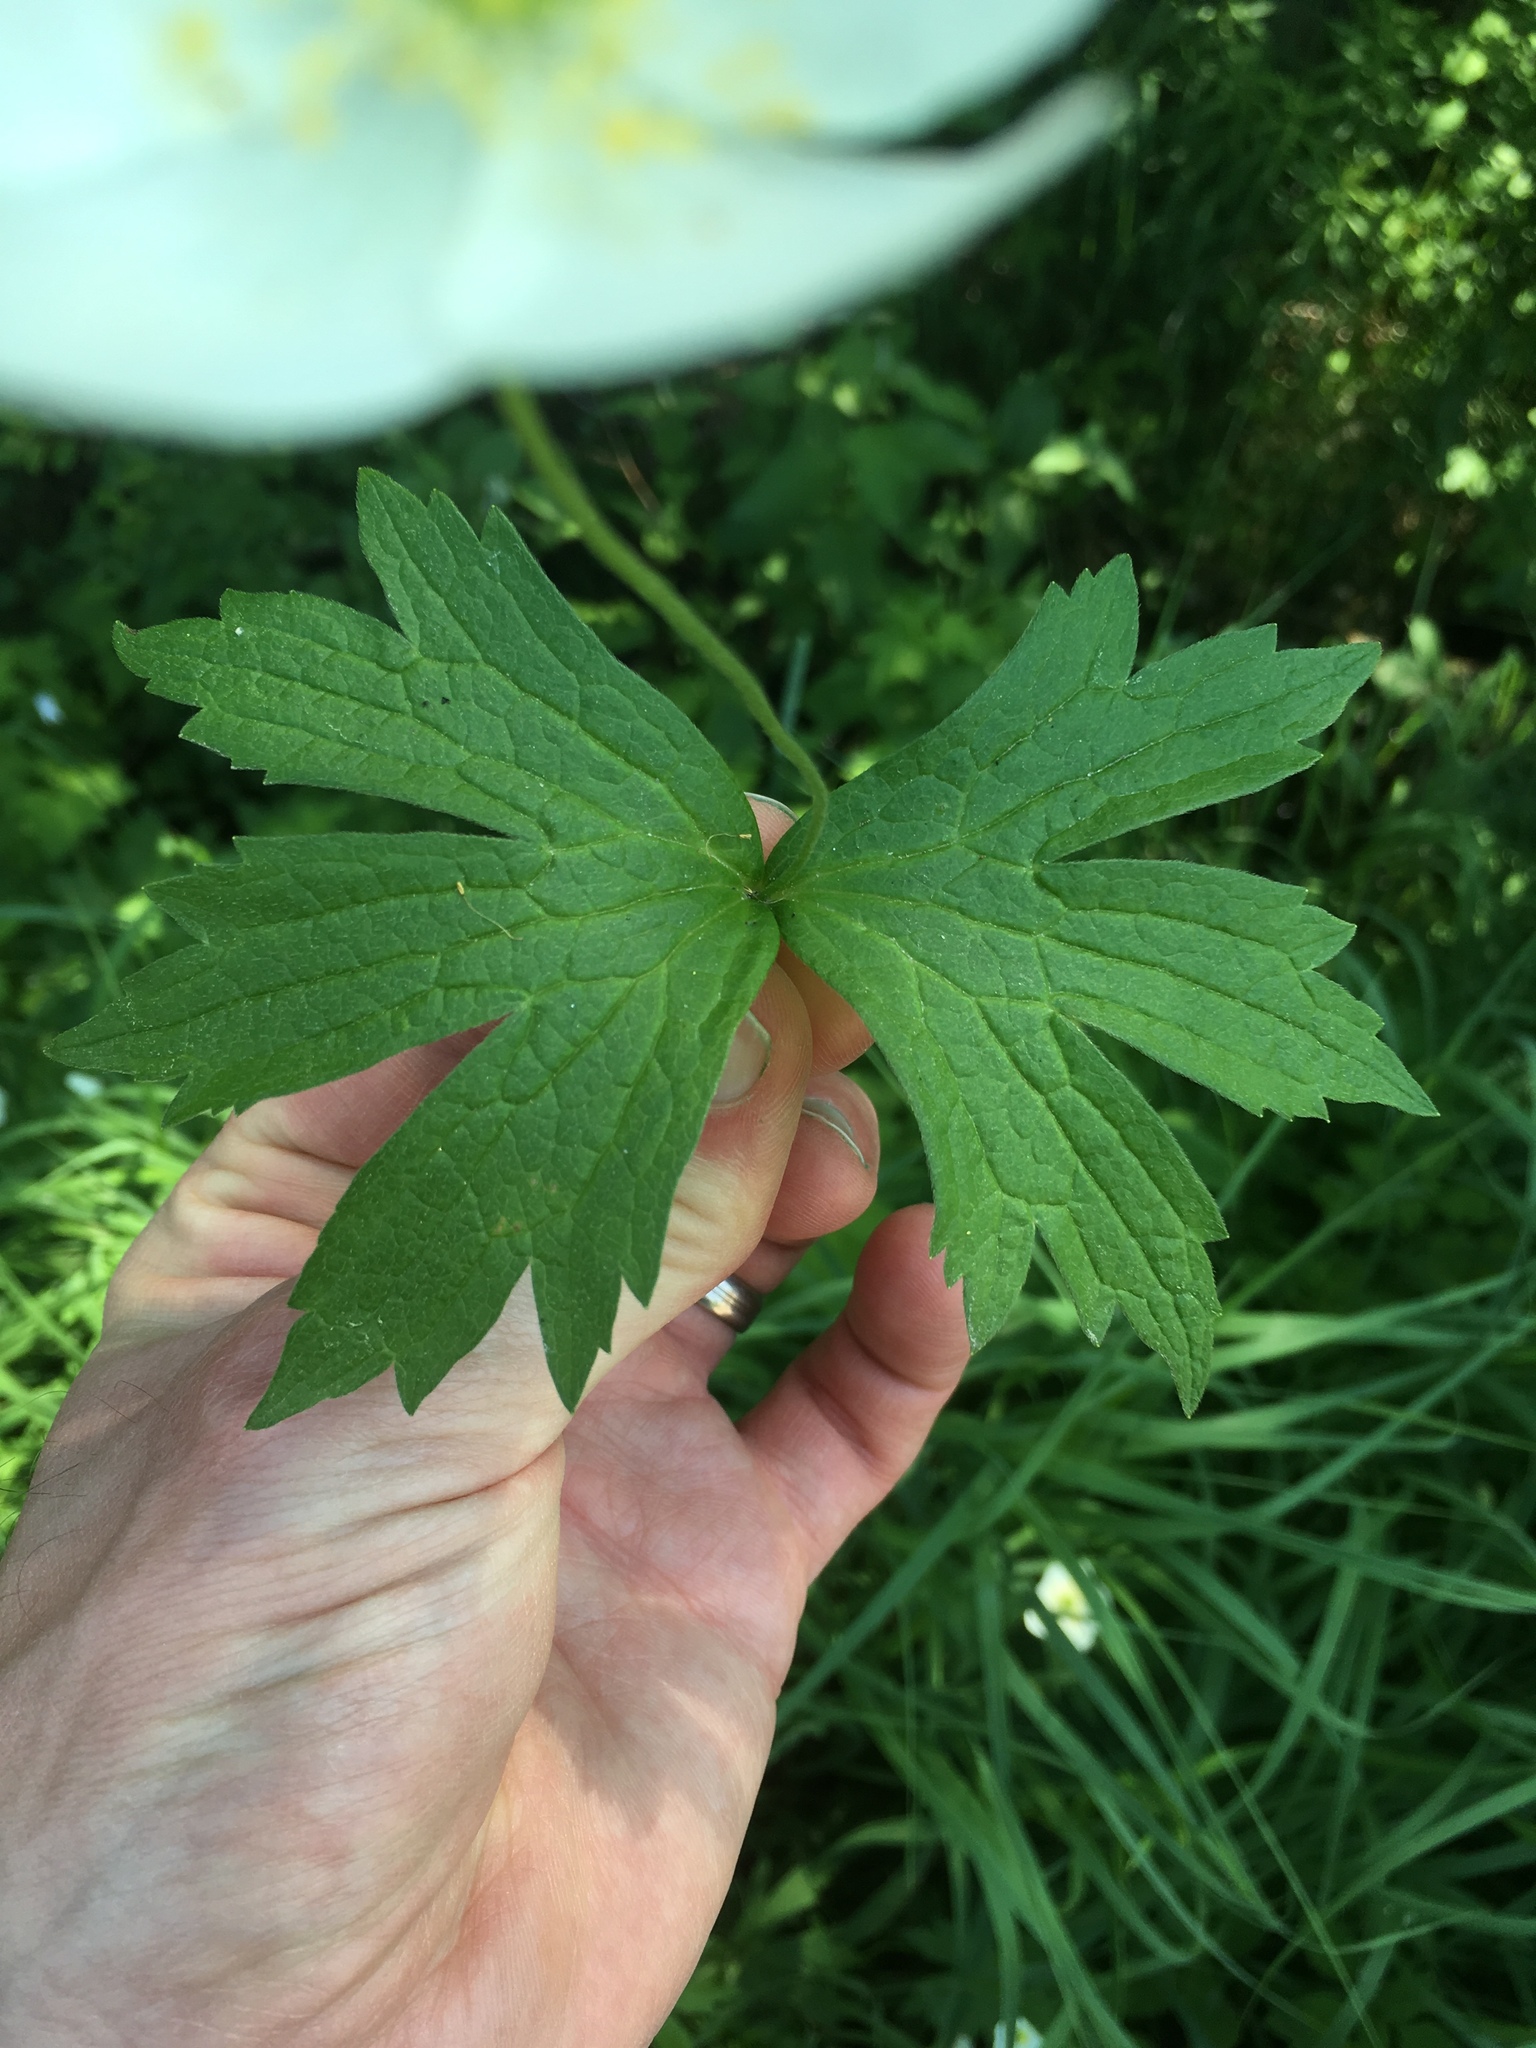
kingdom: Plantae
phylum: Tracheophyta
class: Magnoliopsida
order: Ranunculales
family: Ranunculaceae
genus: Anemonastrum
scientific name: Anemonastrum canadense
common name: Canada anemone
